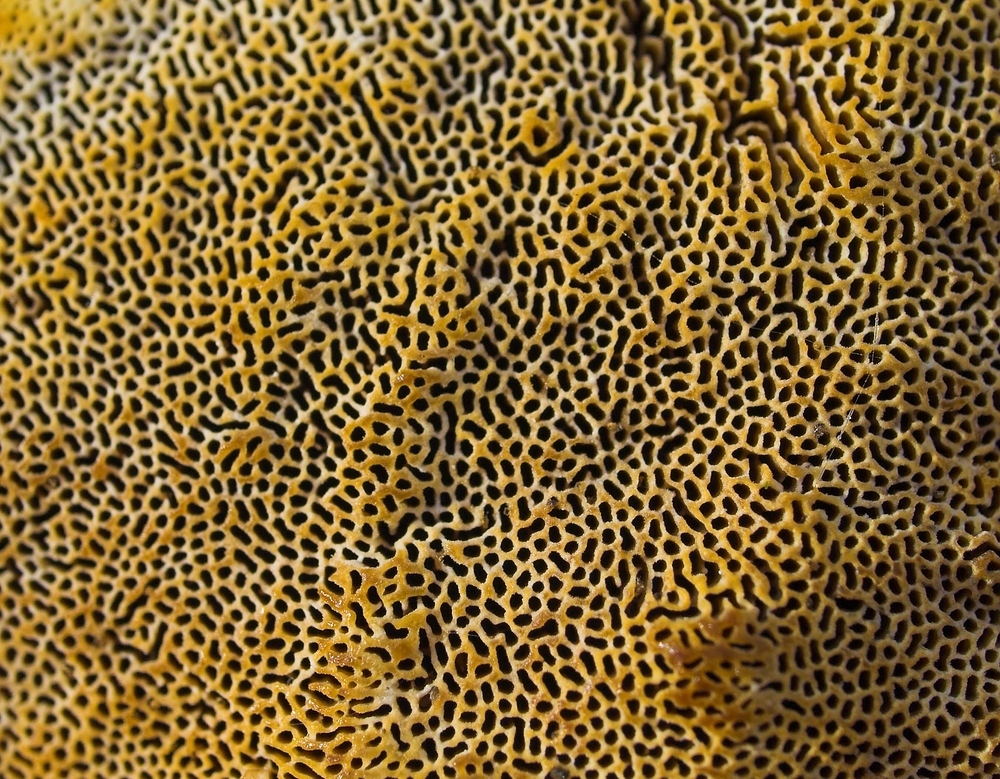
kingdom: Fungi
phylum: Basidiomycota
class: Agaricomycetes
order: Polyporales
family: Polyporaceae
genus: Daedaleopsis
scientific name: Daedaleopsis confragosa
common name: Blushing bracket
